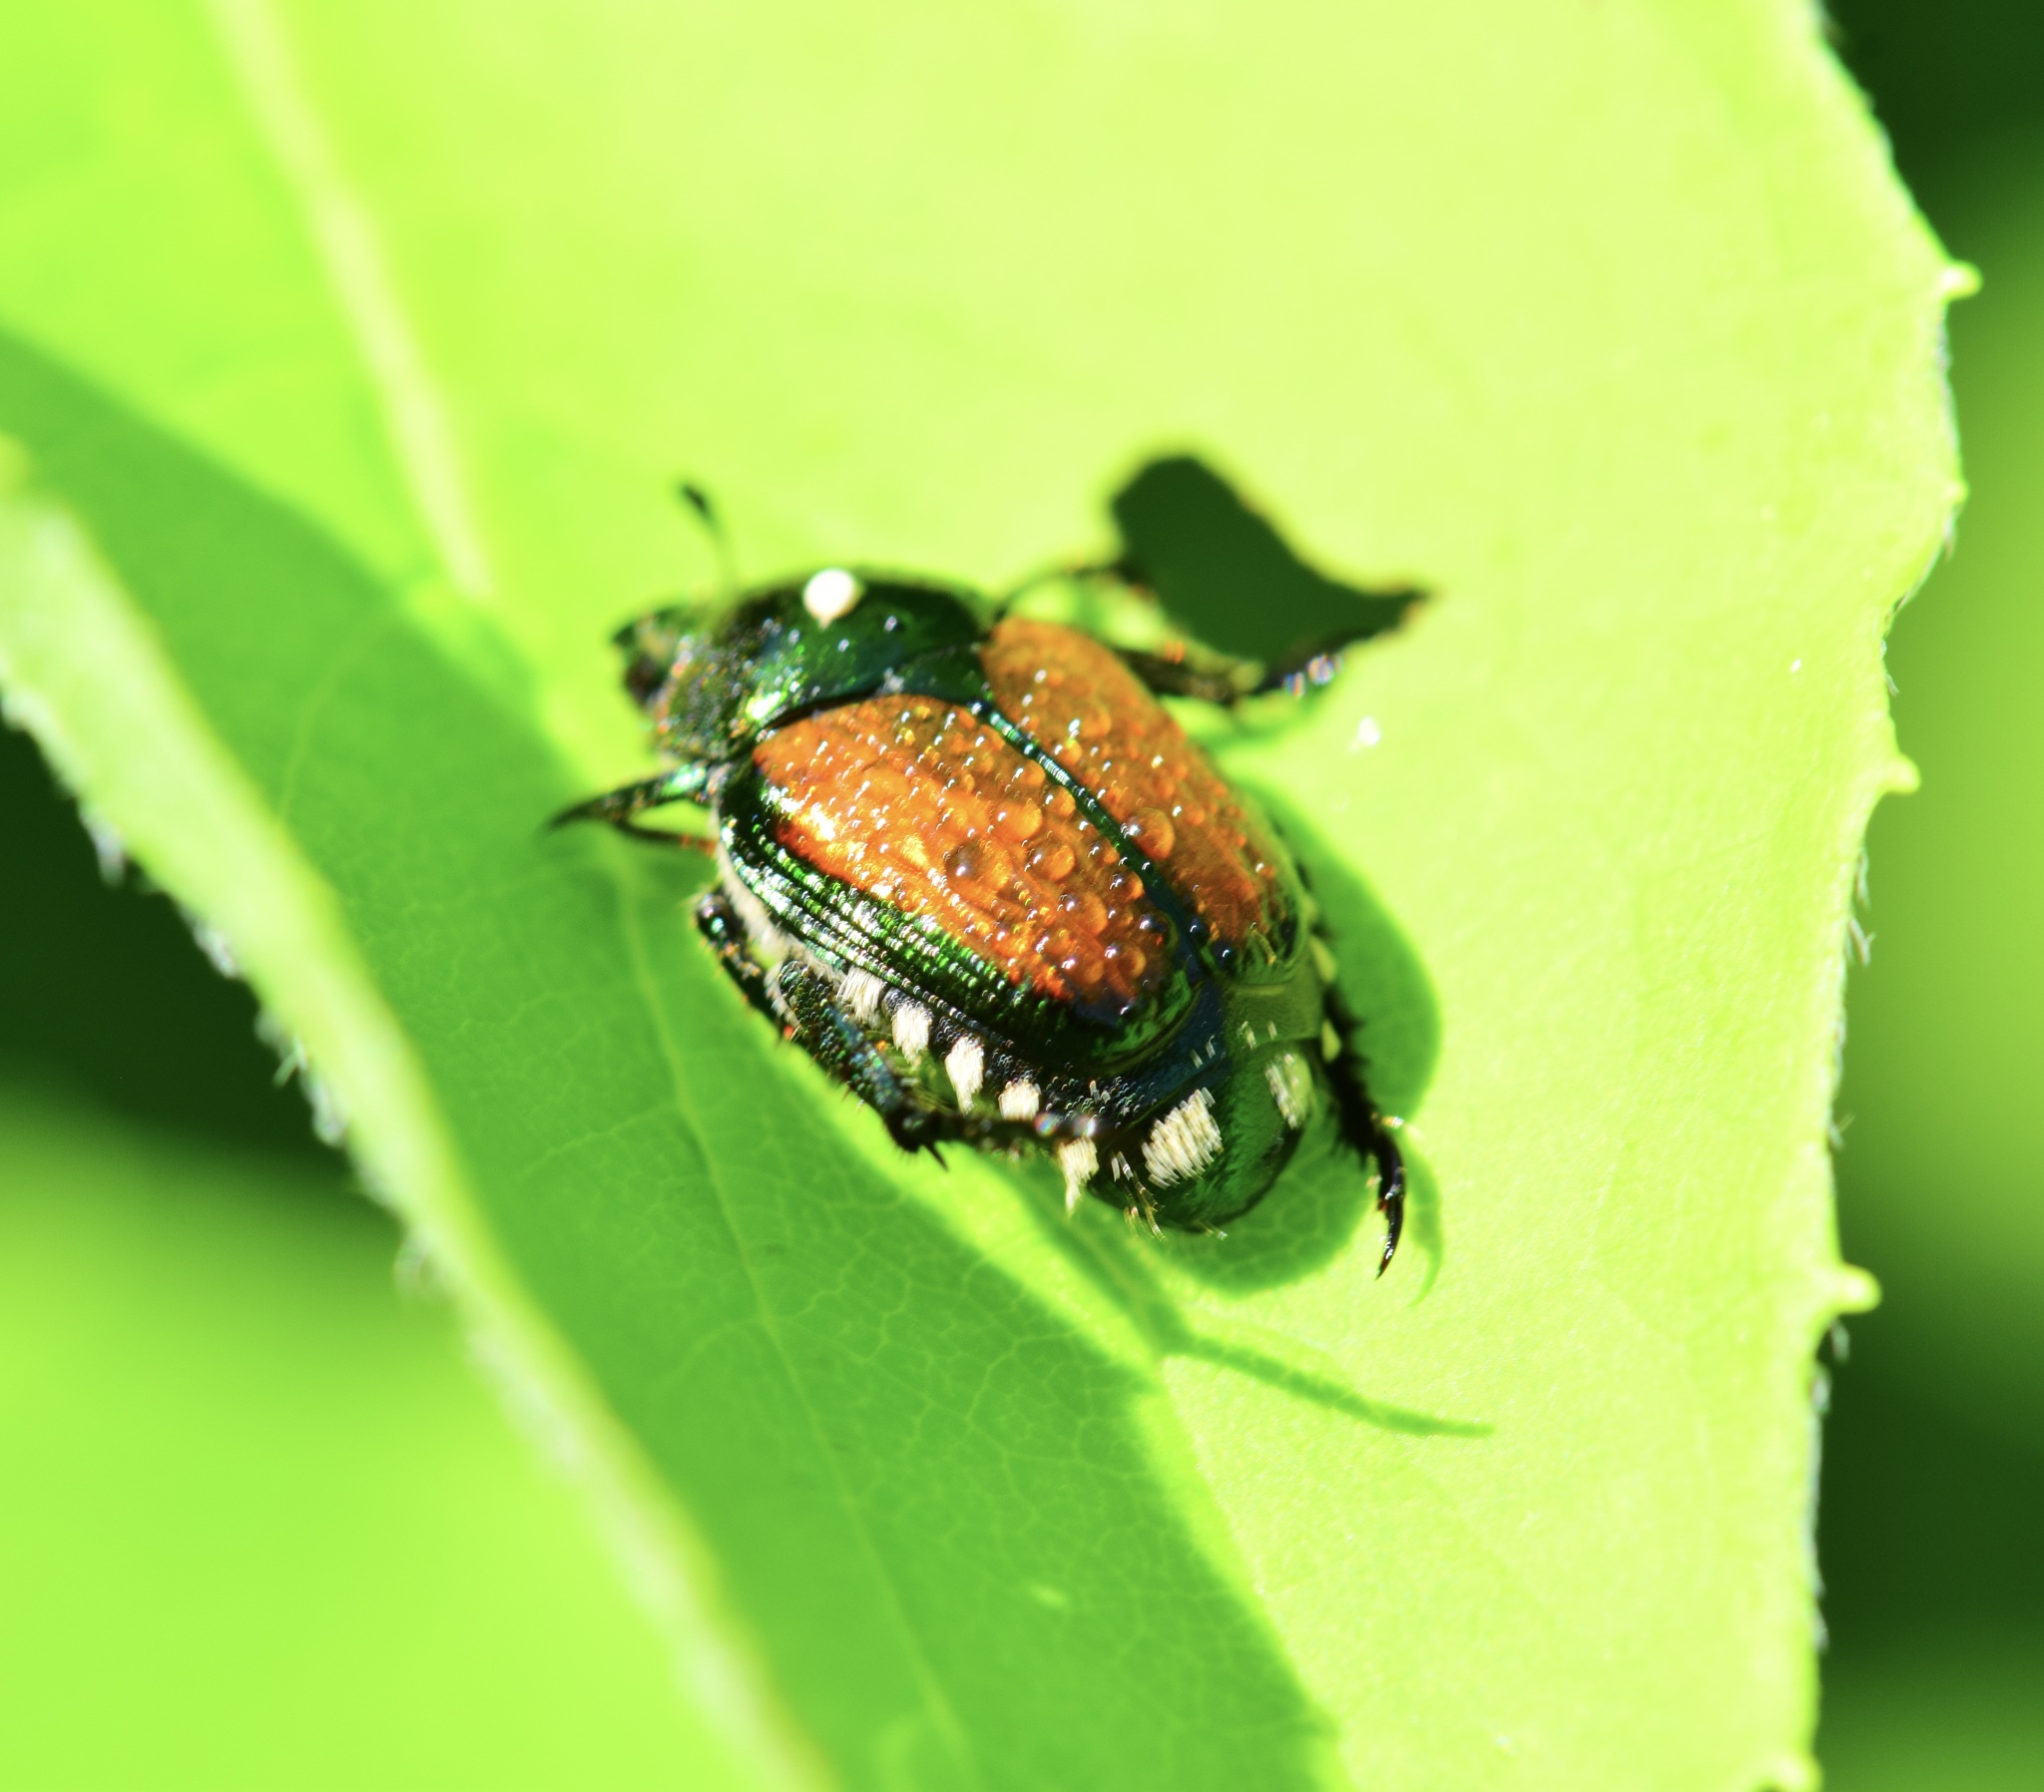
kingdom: Animalia
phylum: Arthropoda
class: Insecta
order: Coleoptera
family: Scarabaeidae
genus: Popillia
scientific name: Popillia japonica
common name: Japanese beetle
